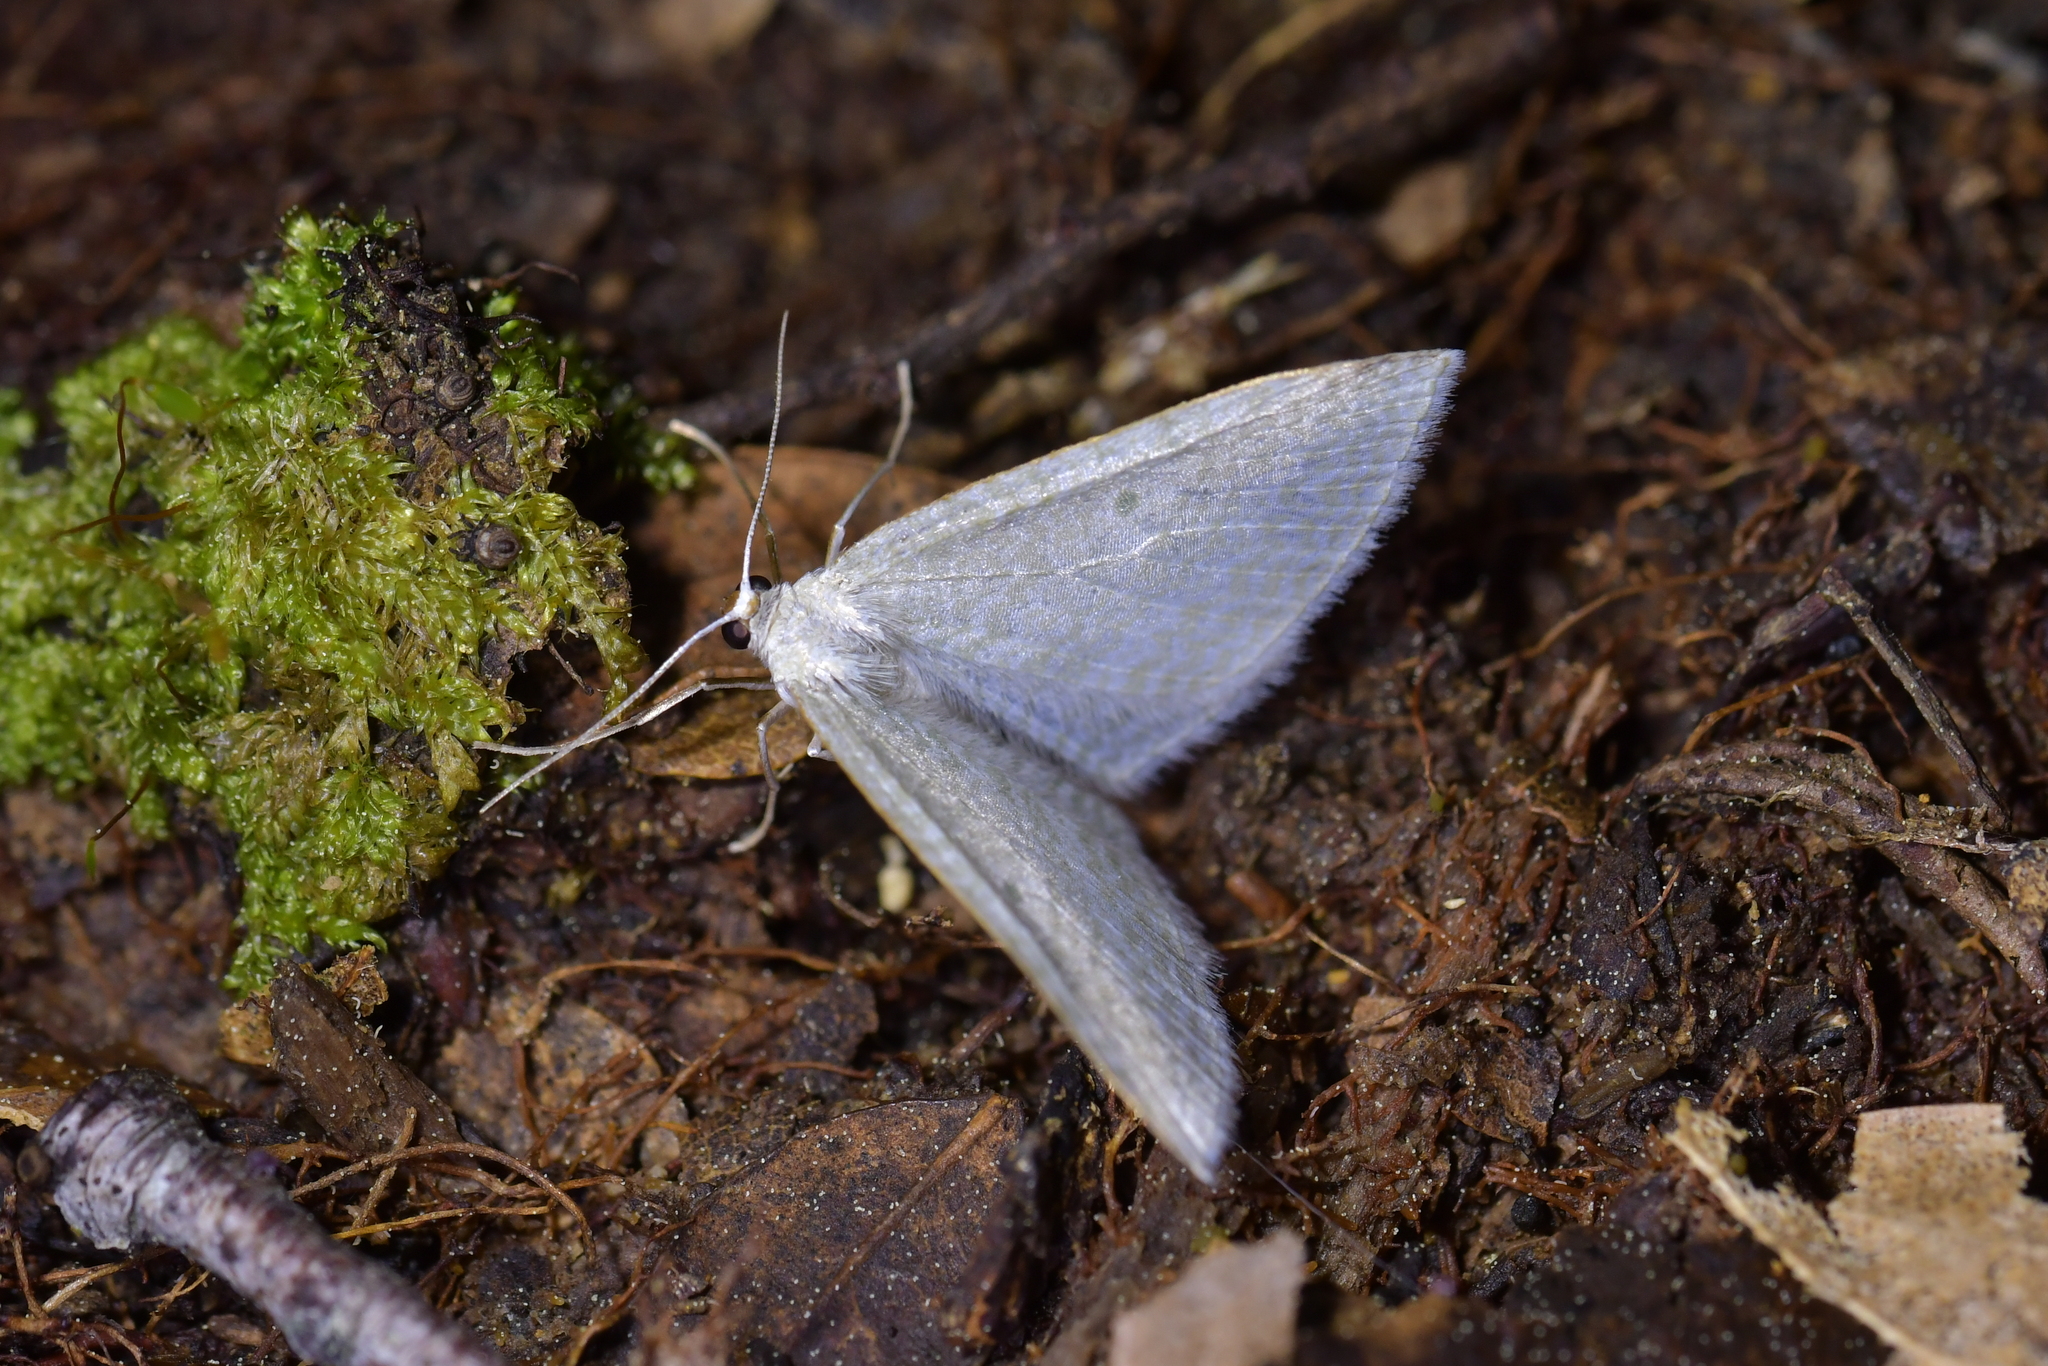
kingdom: Animalia
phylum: Arthropoda
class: Insecta
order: Lepidoptera
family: Geometridae
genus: Poecilasthena
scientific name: Poecilasthena pulchraria
